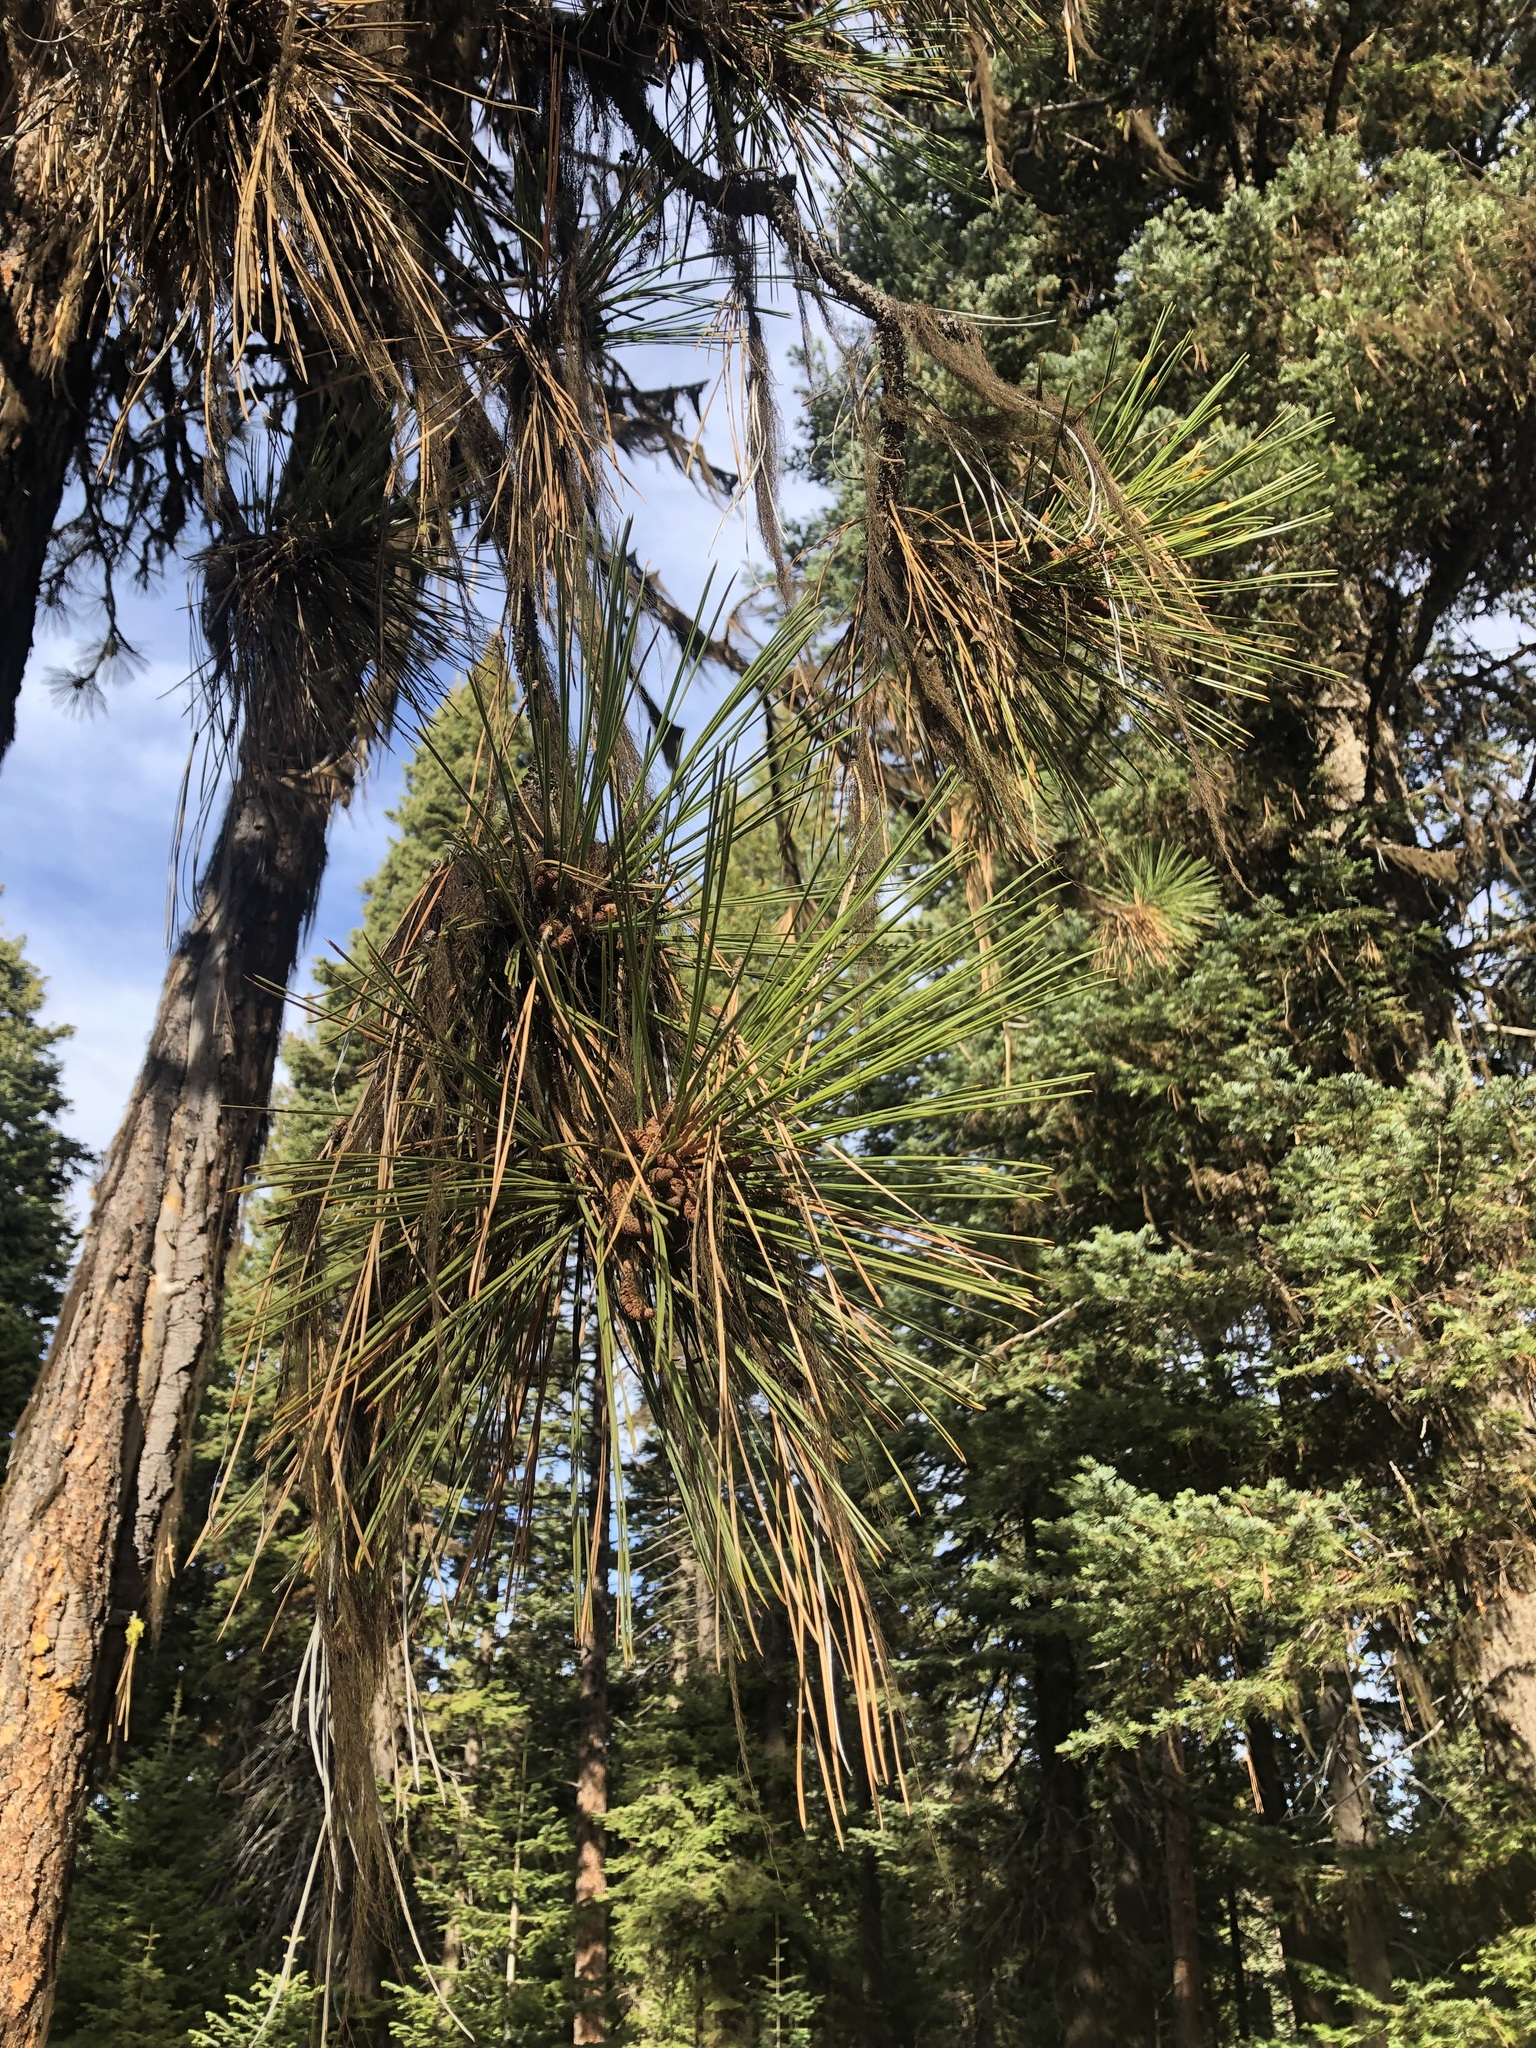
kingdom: Plantae
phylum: Tracheophyta
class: Pinopsida
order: Pinales
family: Pinaceae
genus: Pinus
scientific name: Pinus ponderosa
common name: Western yellow-pine
